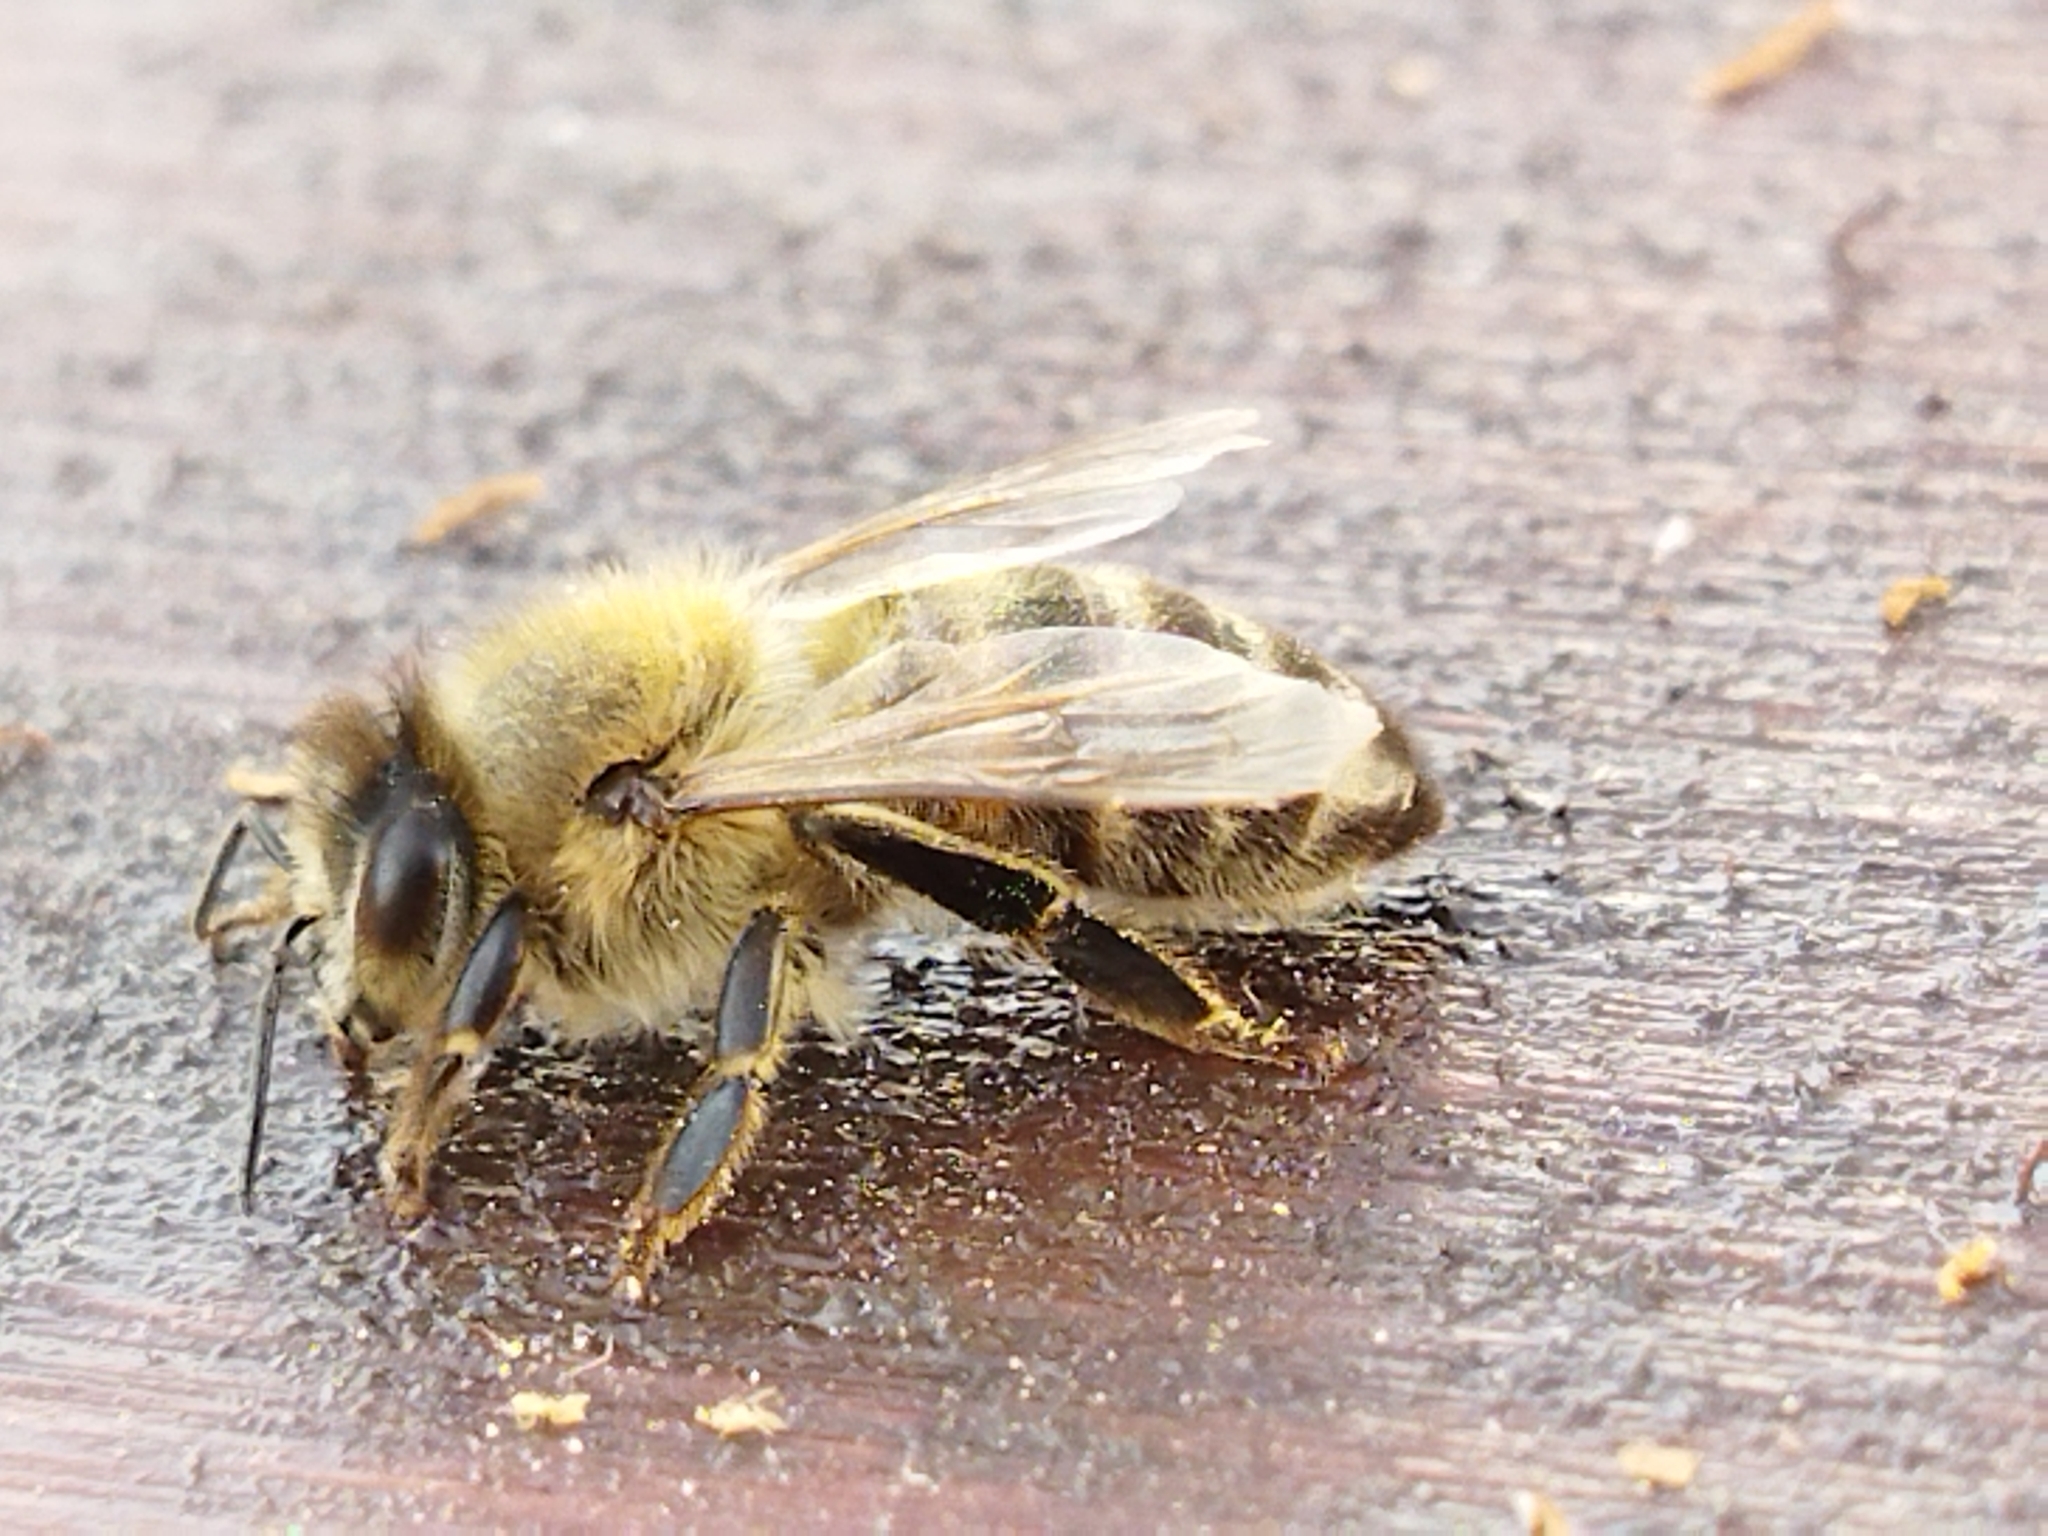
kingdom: Animalia
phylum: Arthropoda
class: Insecta
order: Hymenoptera
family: Apidae
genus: Apis
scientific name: Apis mellifera
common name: Honey bee
